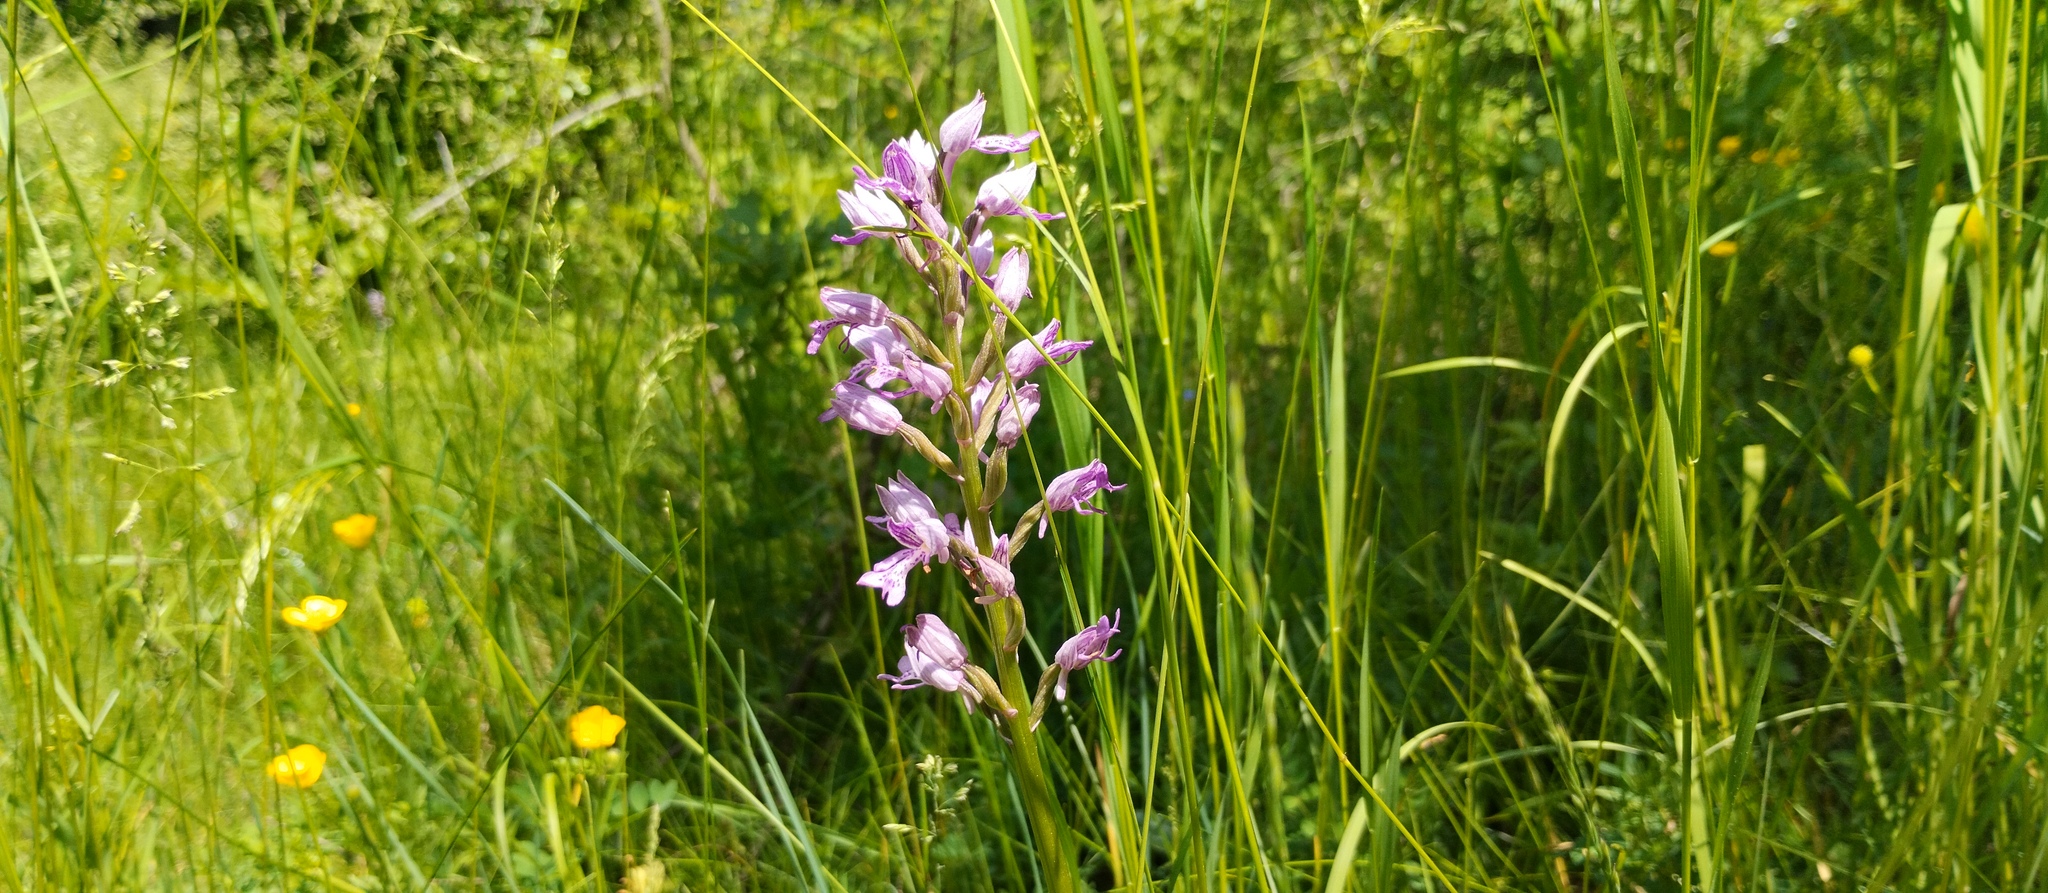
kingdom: Plantae
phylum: Tracheophyta
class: Liliopsida
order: Asparagales
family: Orchidaceae
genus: Orchis
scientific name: Orchis militaris
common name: Military orchid
